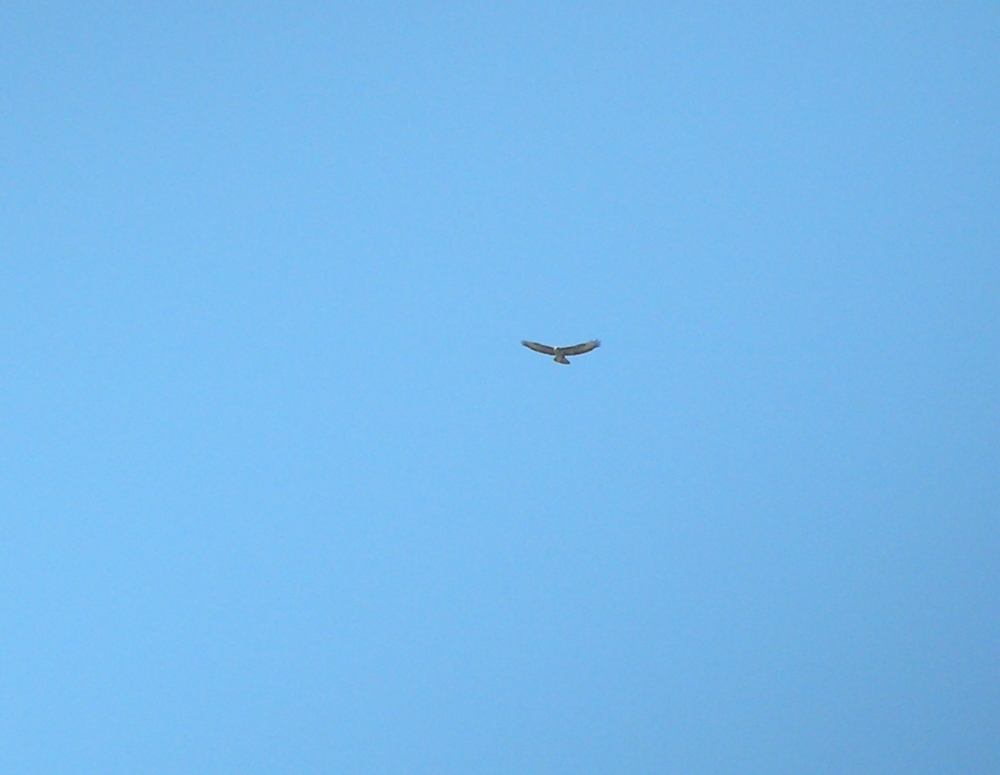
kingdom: Animalia
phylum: Chordata
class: Aves
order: Accipitriformes
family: Accipitridae
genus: Buteo
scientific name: Buteo rufinus
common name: Long-legged buzzard
